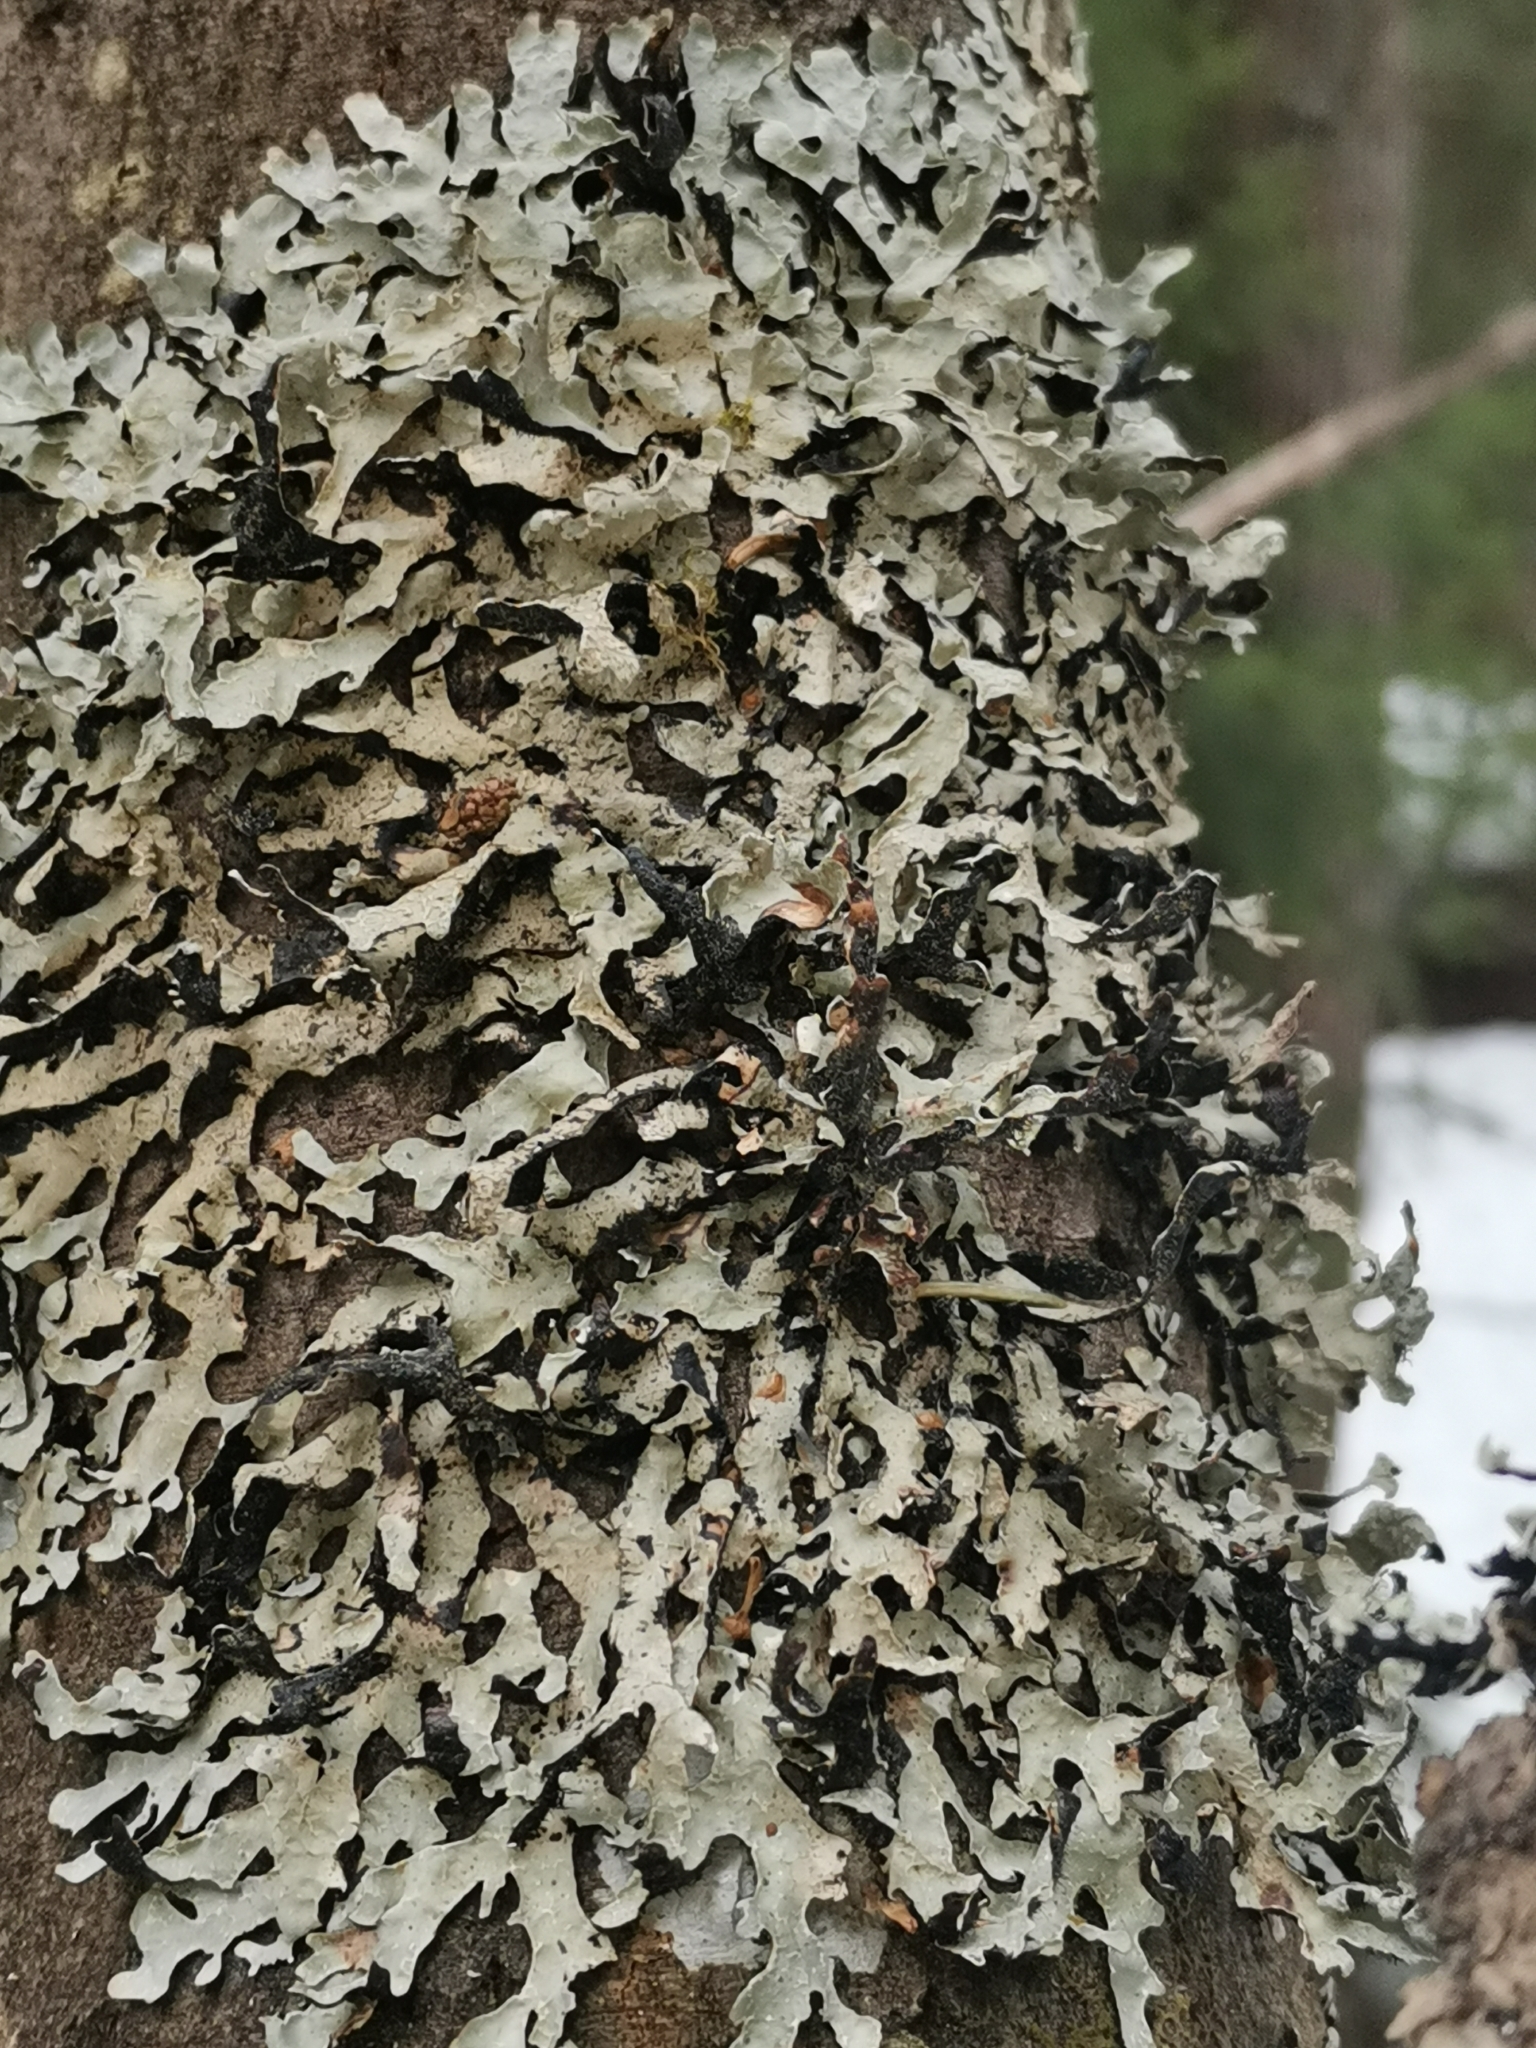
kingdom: Fungi
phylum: Ascomycota
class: Lecanoromycetes
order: Lecanorales
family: Parmeliaceae
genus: Parmelia
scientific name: Parmelia sulcata
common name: Netted shield lichen
